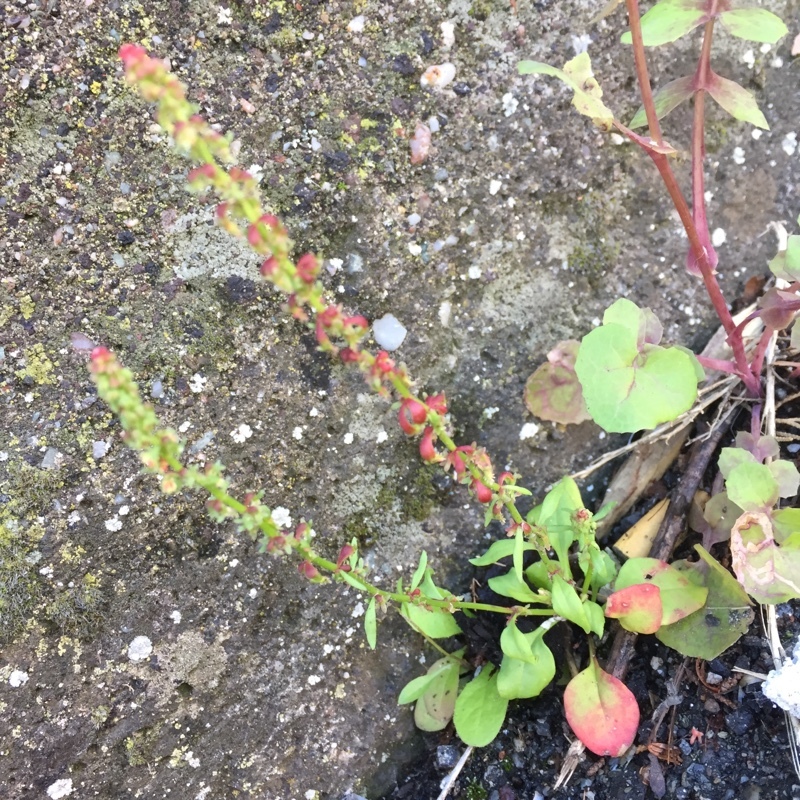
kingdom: Plantae
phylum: Tracheophyta
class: Magnoliopsida
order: Caryophyllales
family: Polygonaceae
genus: Rumex
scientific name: Rumex bucephalophorus
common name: Red dock
